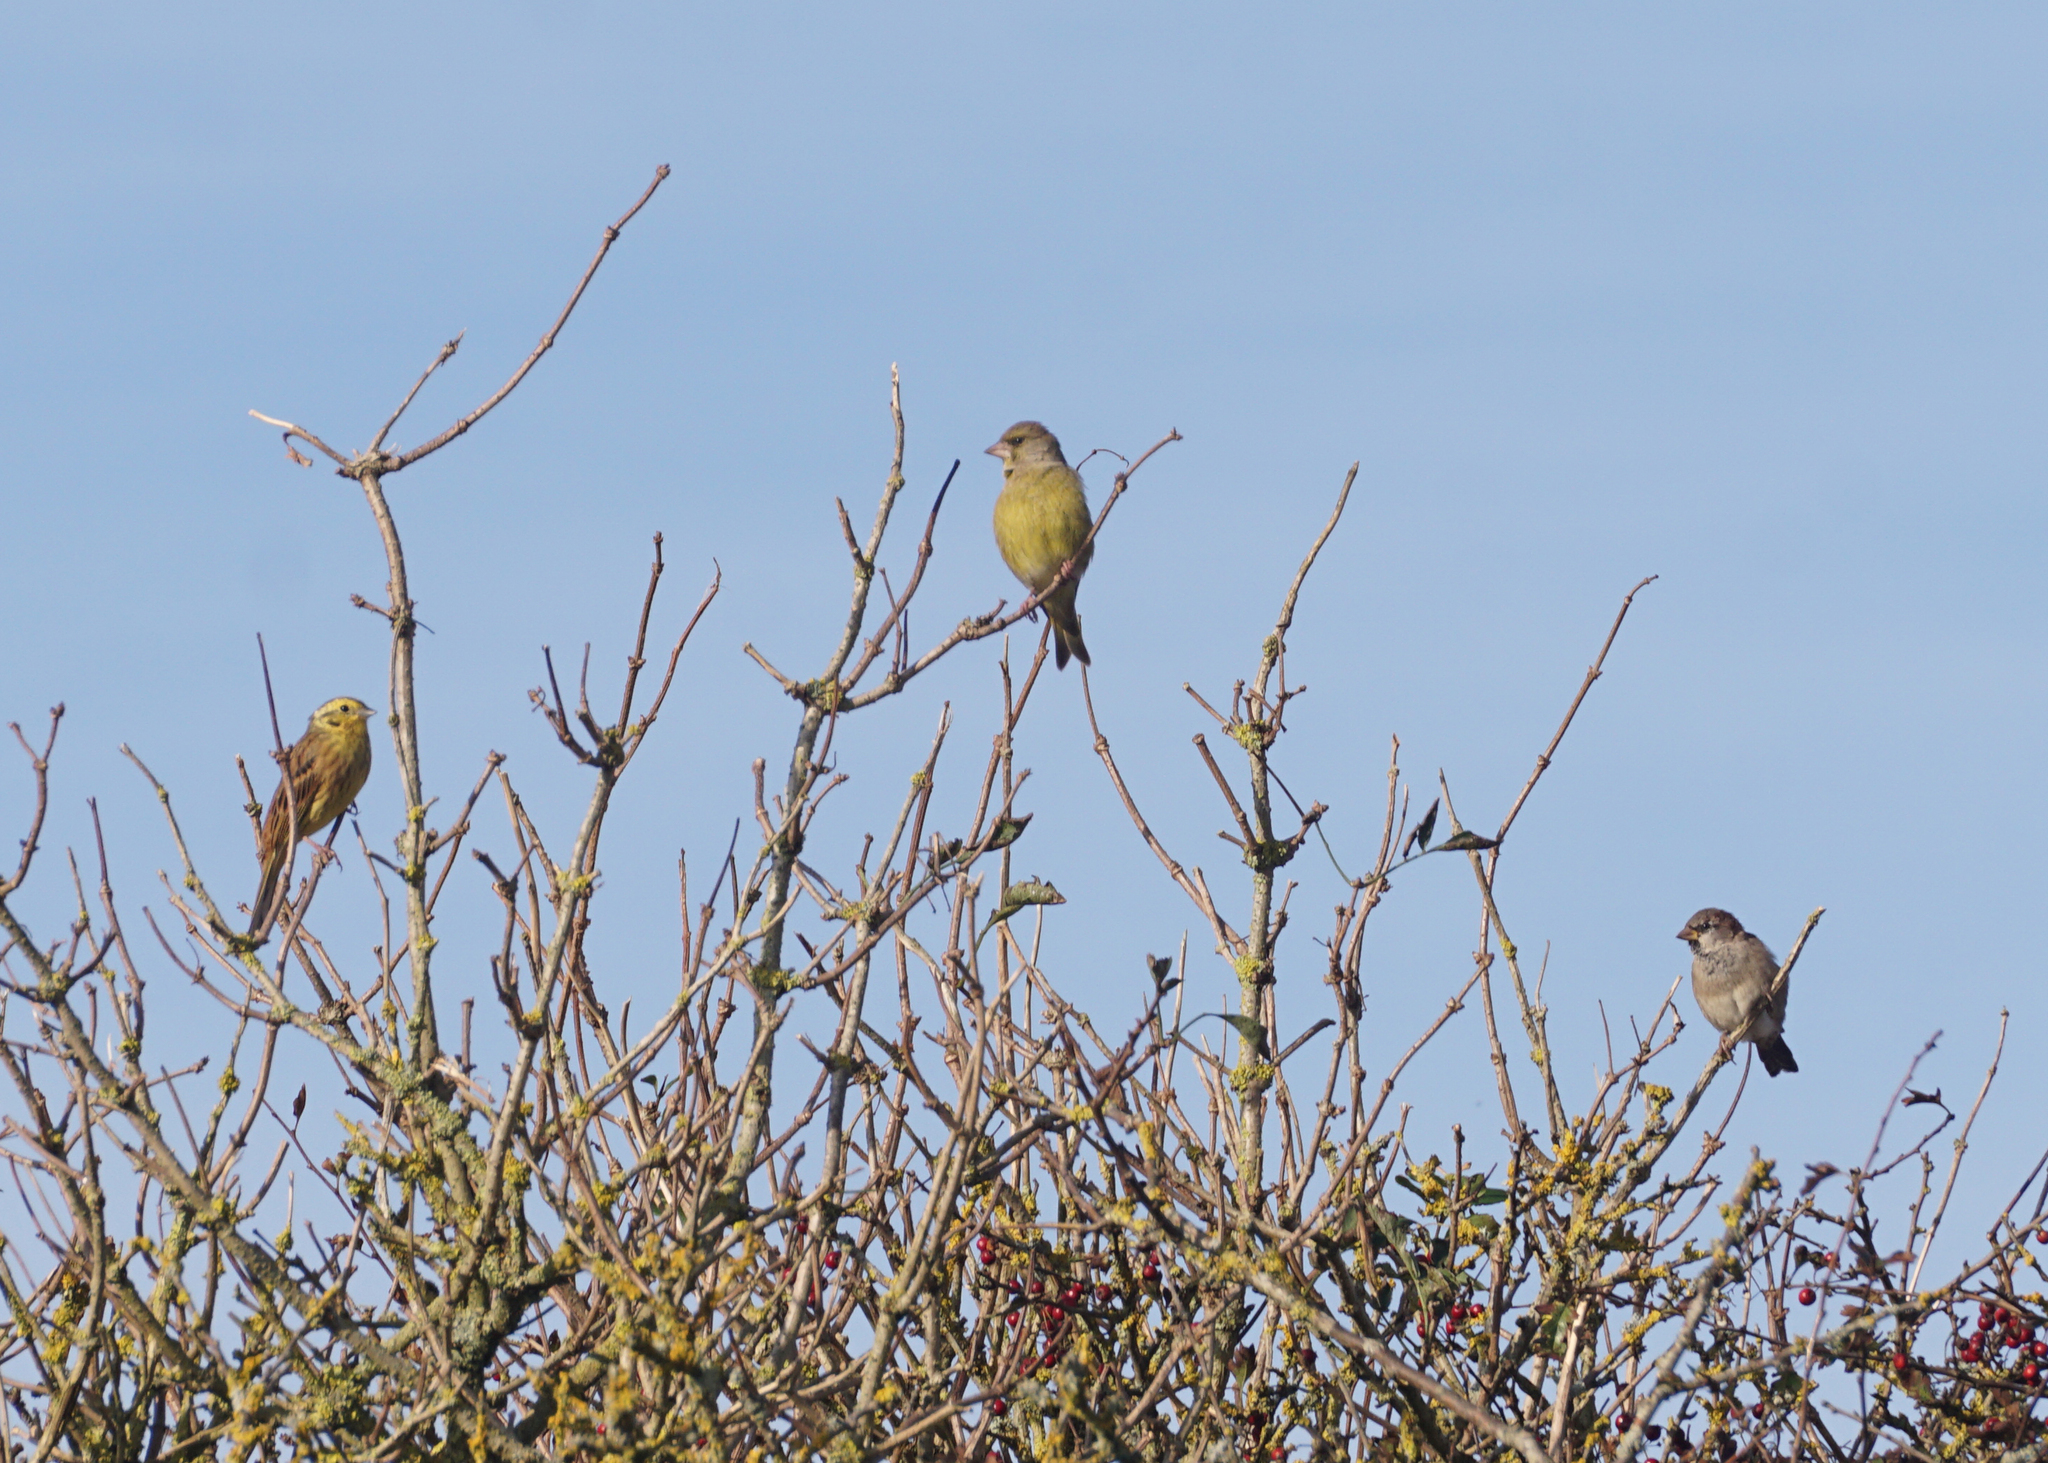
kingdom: Animalia
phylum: Chordata
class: Aves
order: Passeriformes
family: Passeridae
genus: Passer
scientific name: Passer domesticus
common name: House sparrow
